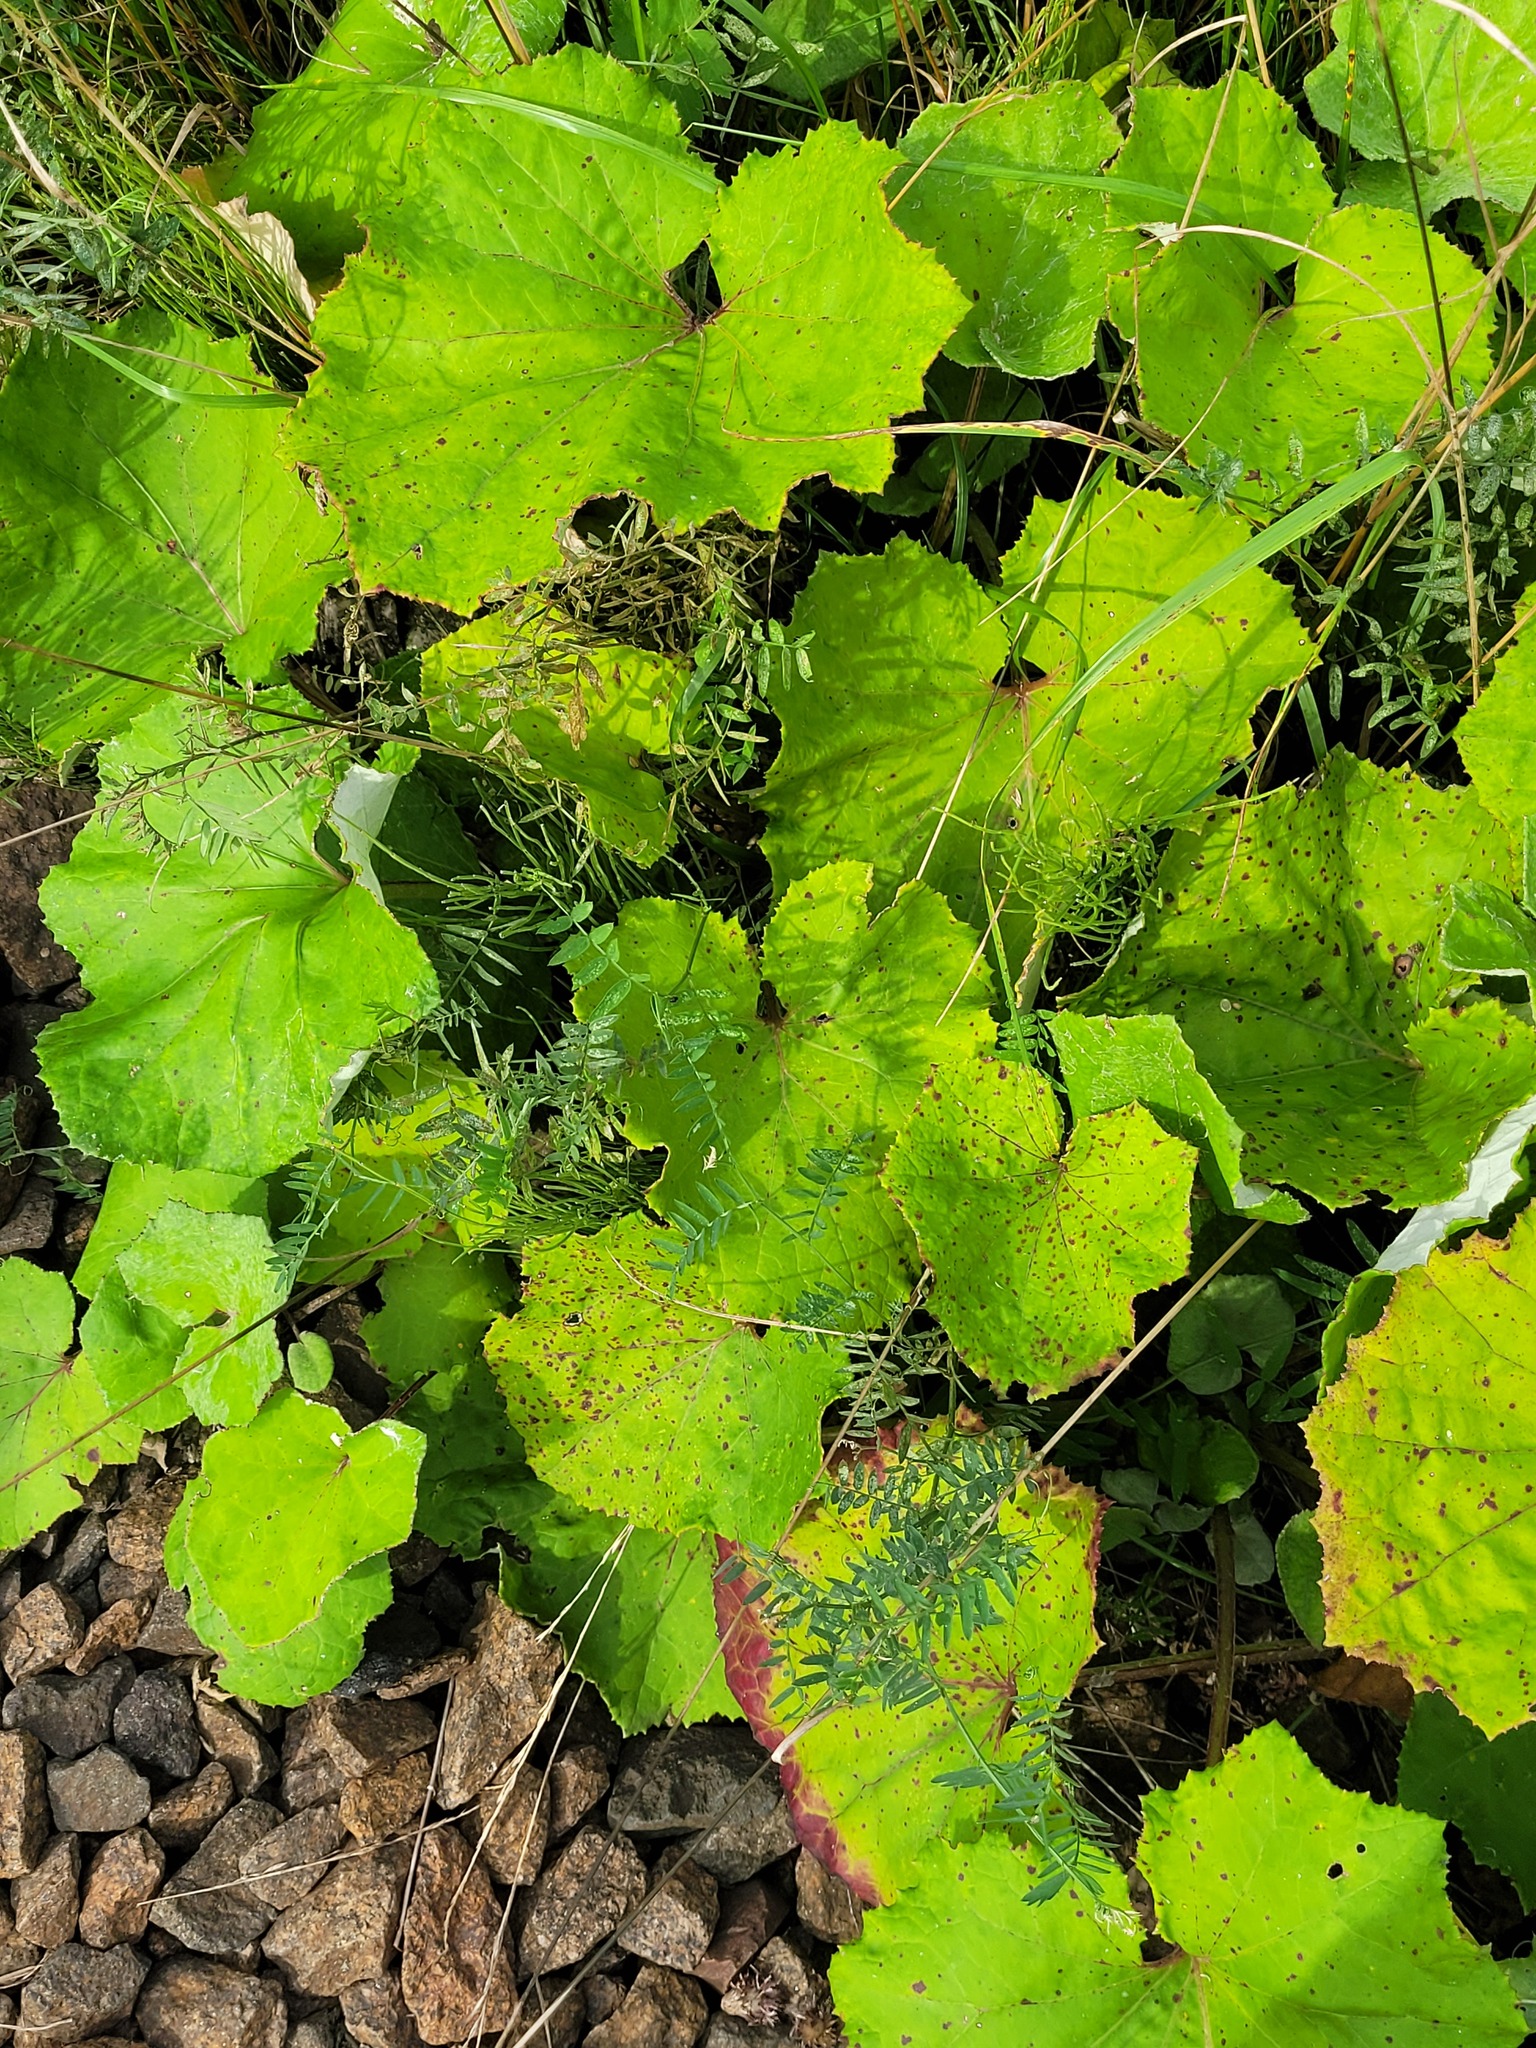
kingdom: Plantae
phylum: Tracheophyta
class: Magnoliopsida
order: Asterales
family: Asteraceae
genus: Tussilago
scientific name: Tussilago farfara
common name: Coltsfoot
